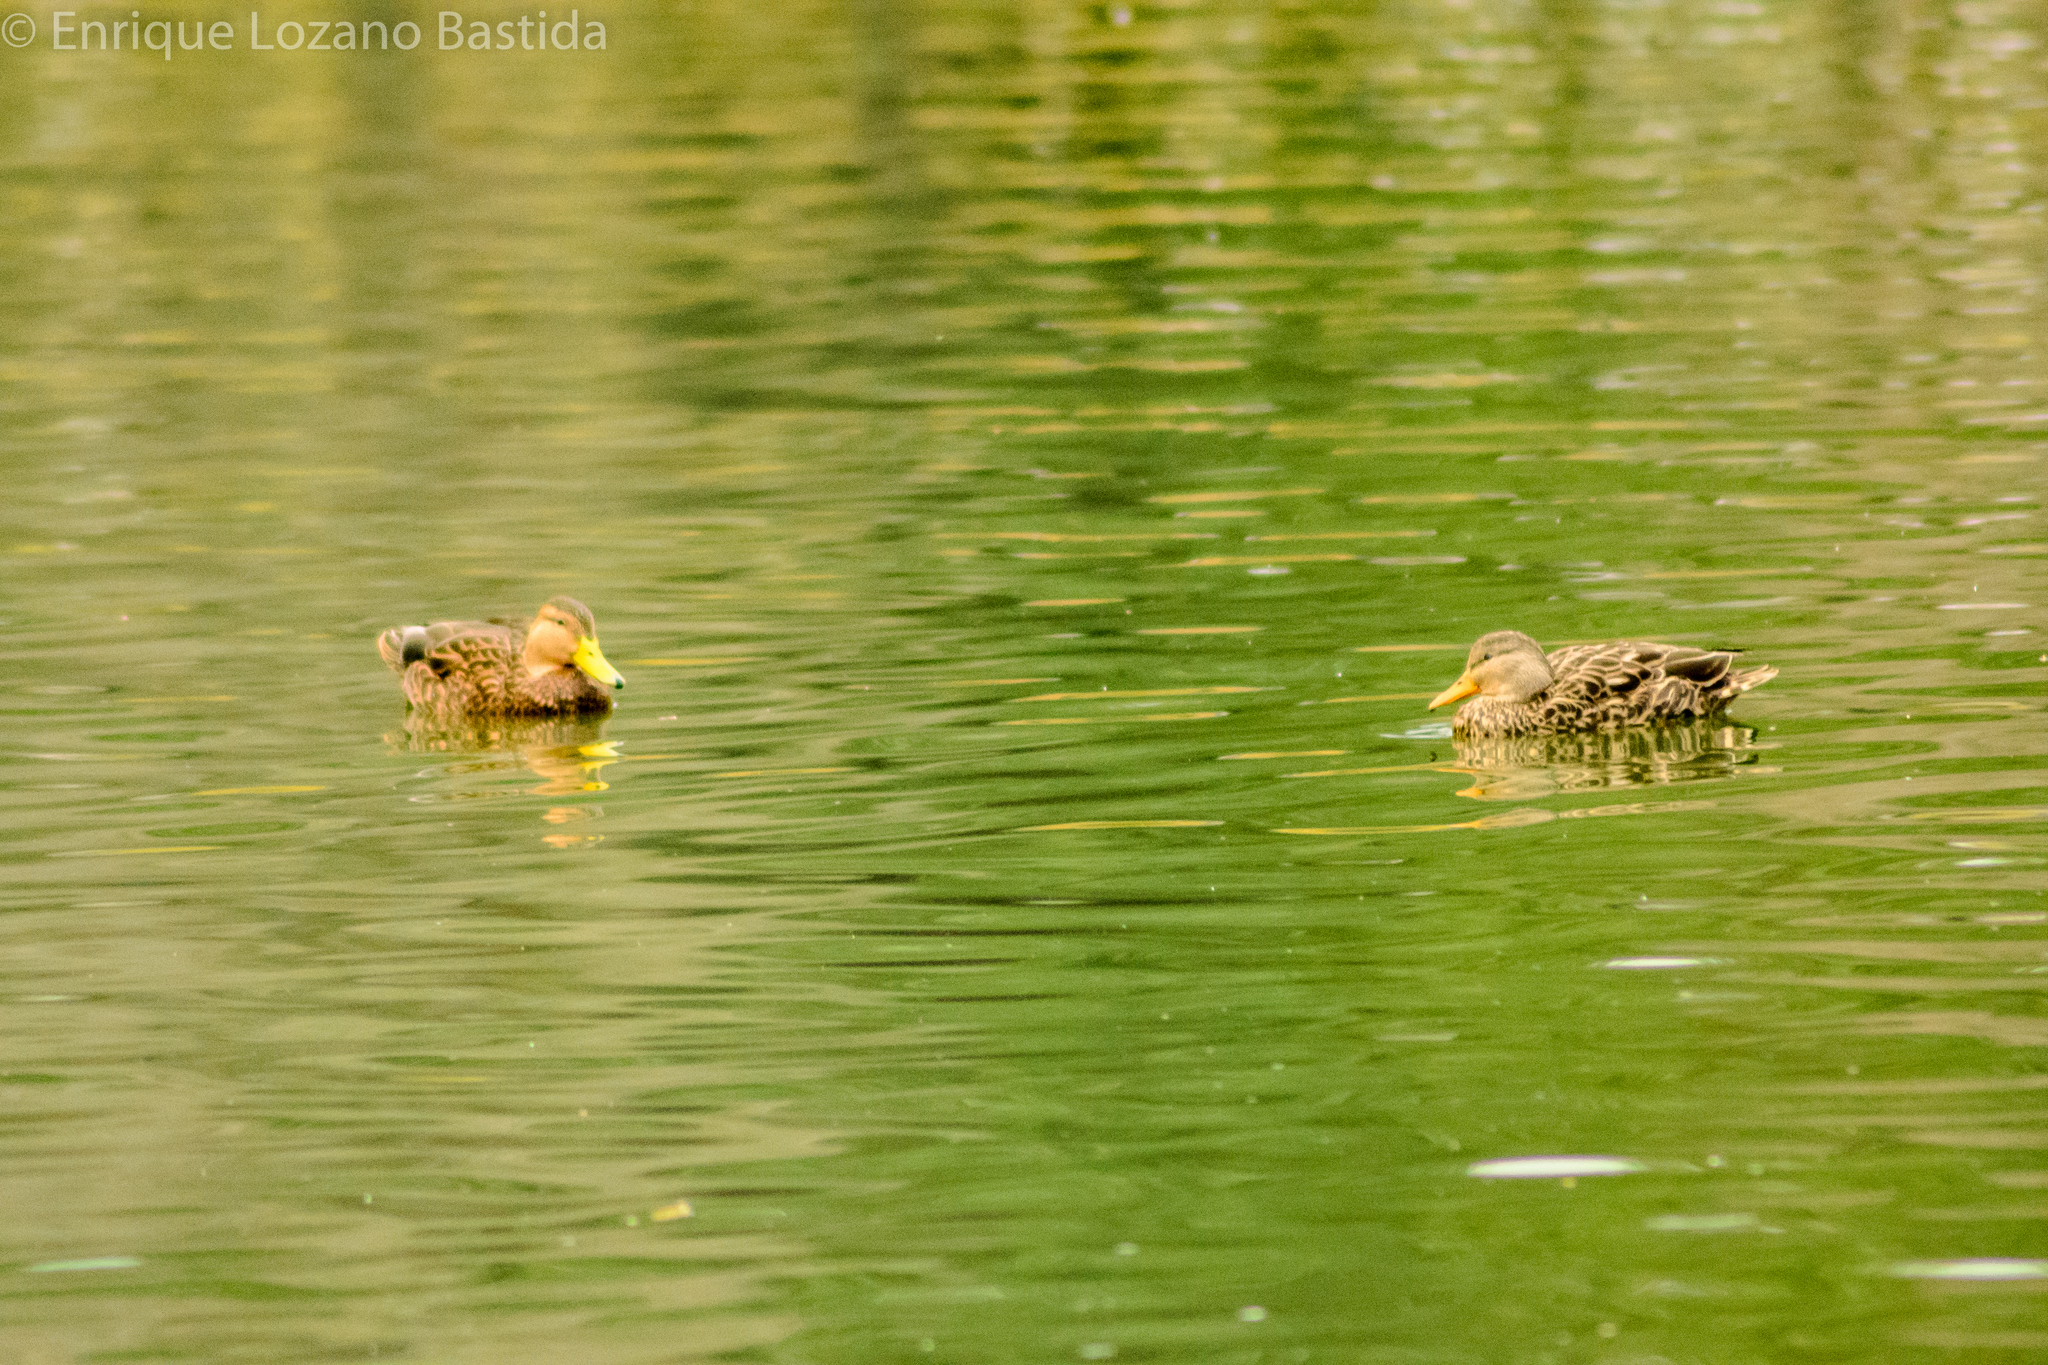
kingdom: Animalia
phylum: Chordata
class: Aves
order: Anseriformes
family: Anatidae
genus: Anas
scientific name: Anas diazi
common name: Mexican duck
